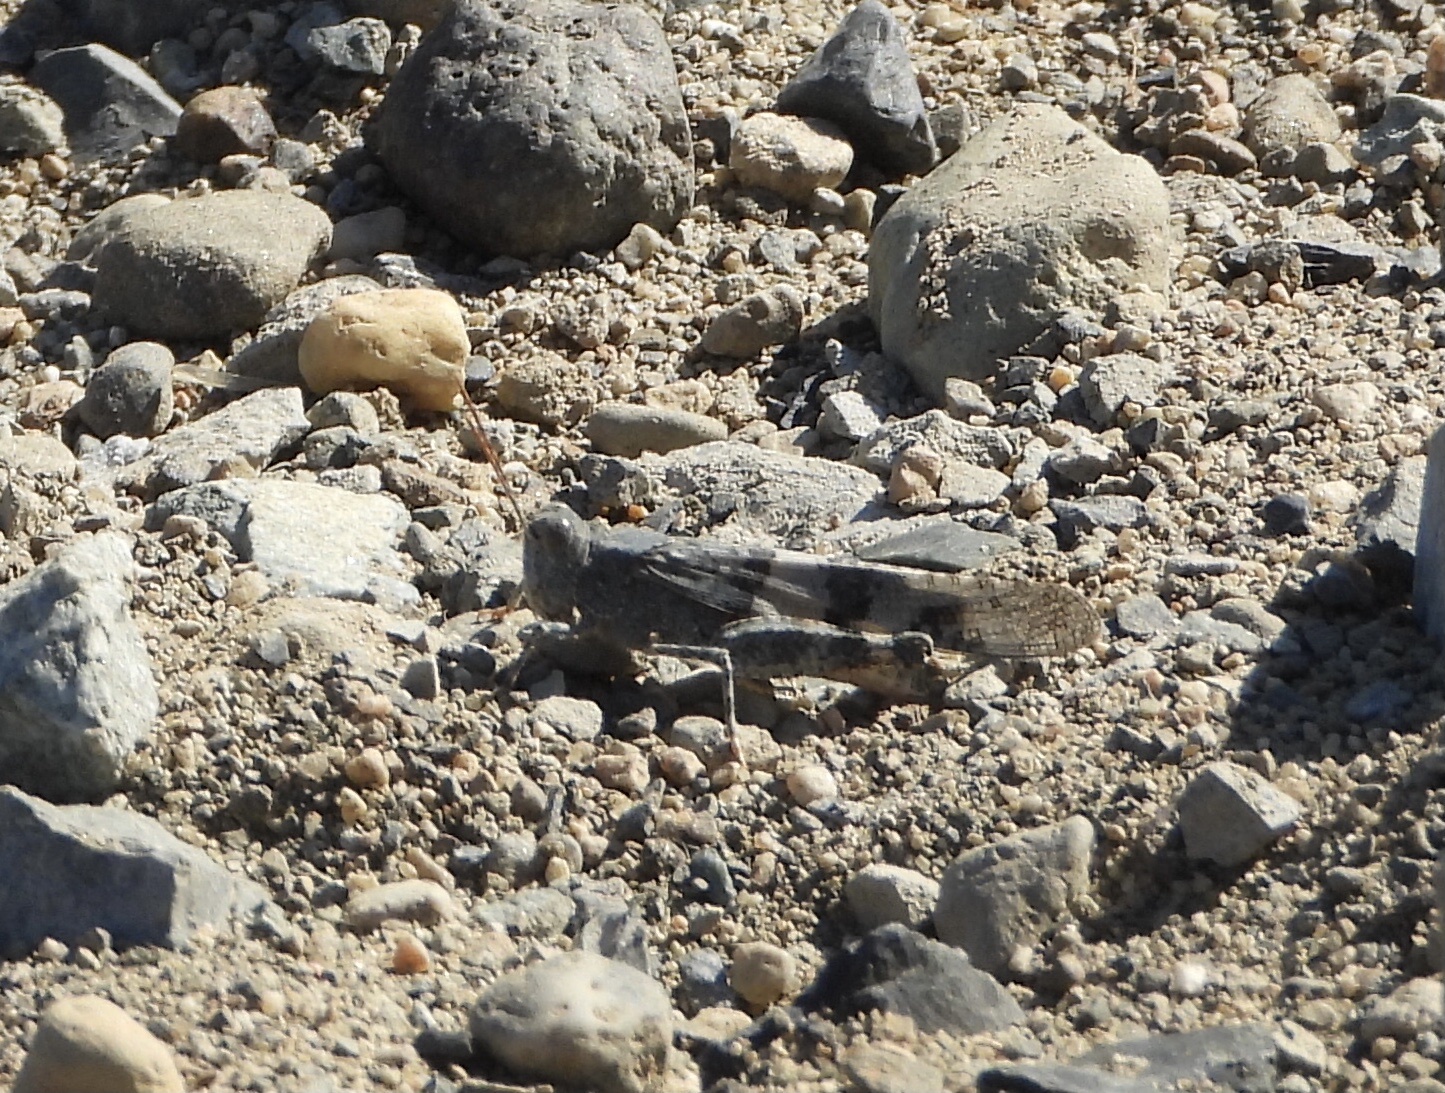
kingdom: Animalia
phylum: Arthropoda
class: Insecta
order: Orthoptera
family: Acrididae
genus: Trimerotropis
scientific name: Trimerotropis pallidipennis
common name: Pallid-winged grasshopper
